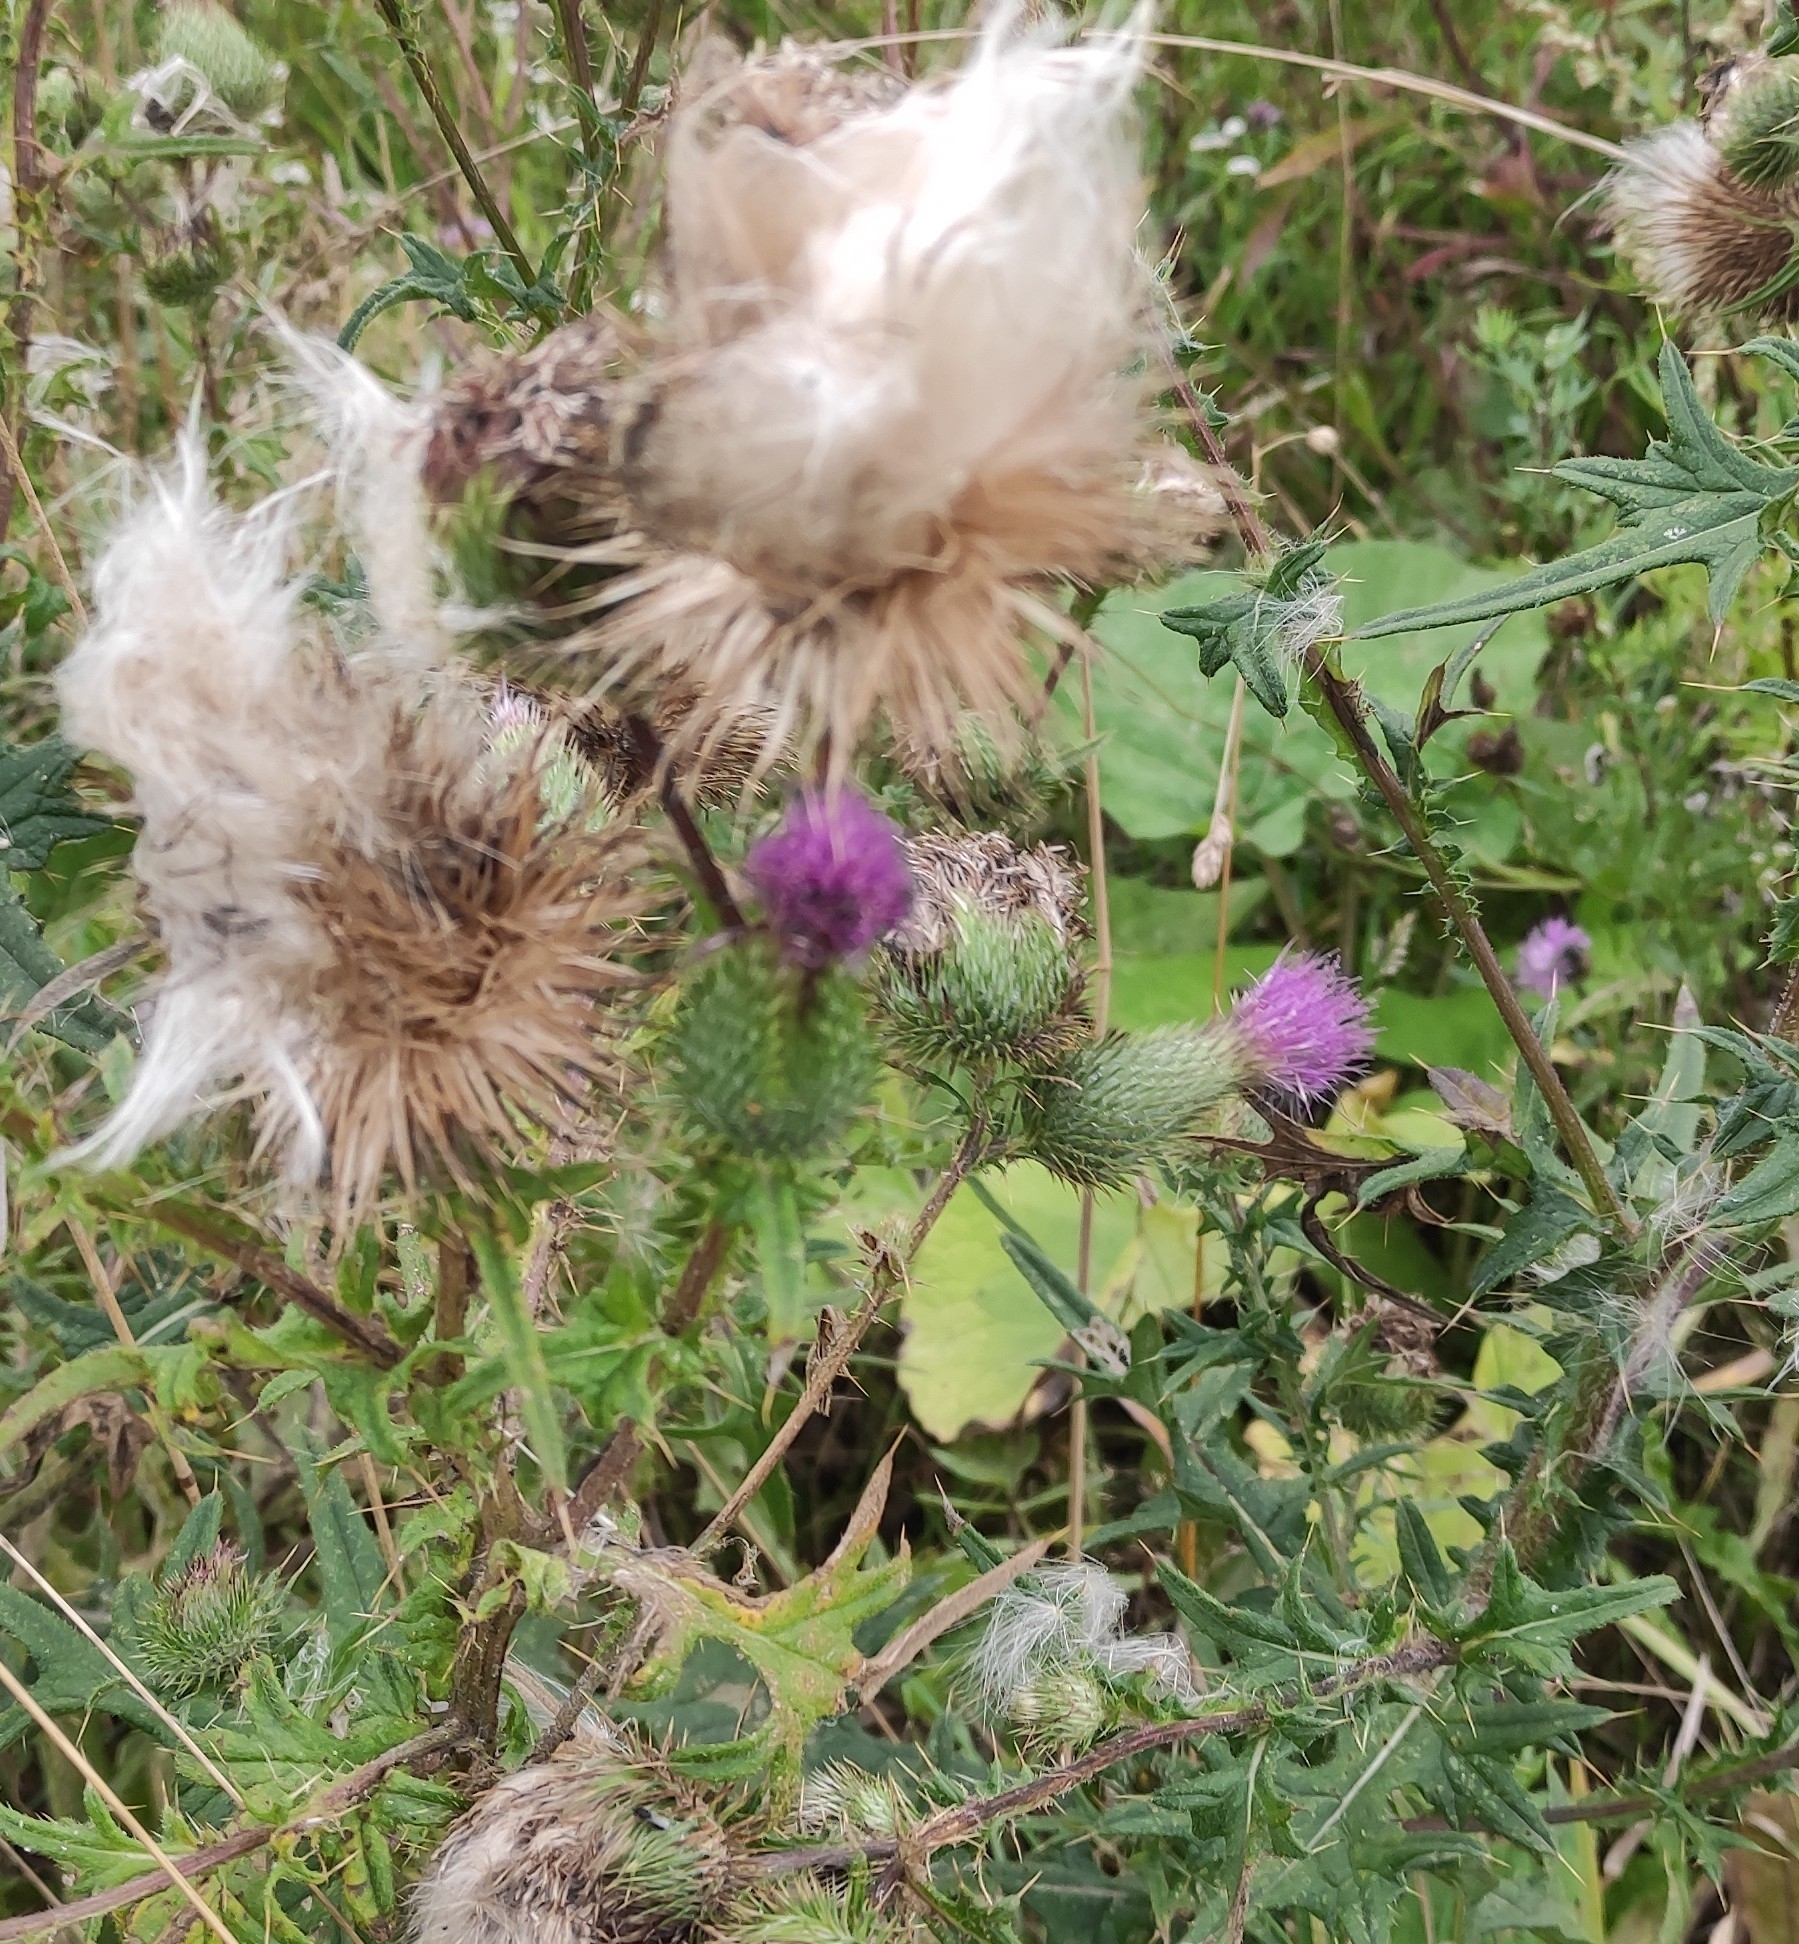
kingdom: Plantae
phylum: Tracheophyta
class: Magnoliopsida
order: Asterales
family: Asteraceae
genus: Cirsium
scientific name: Cirsium vulgare
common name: Bull thistle
